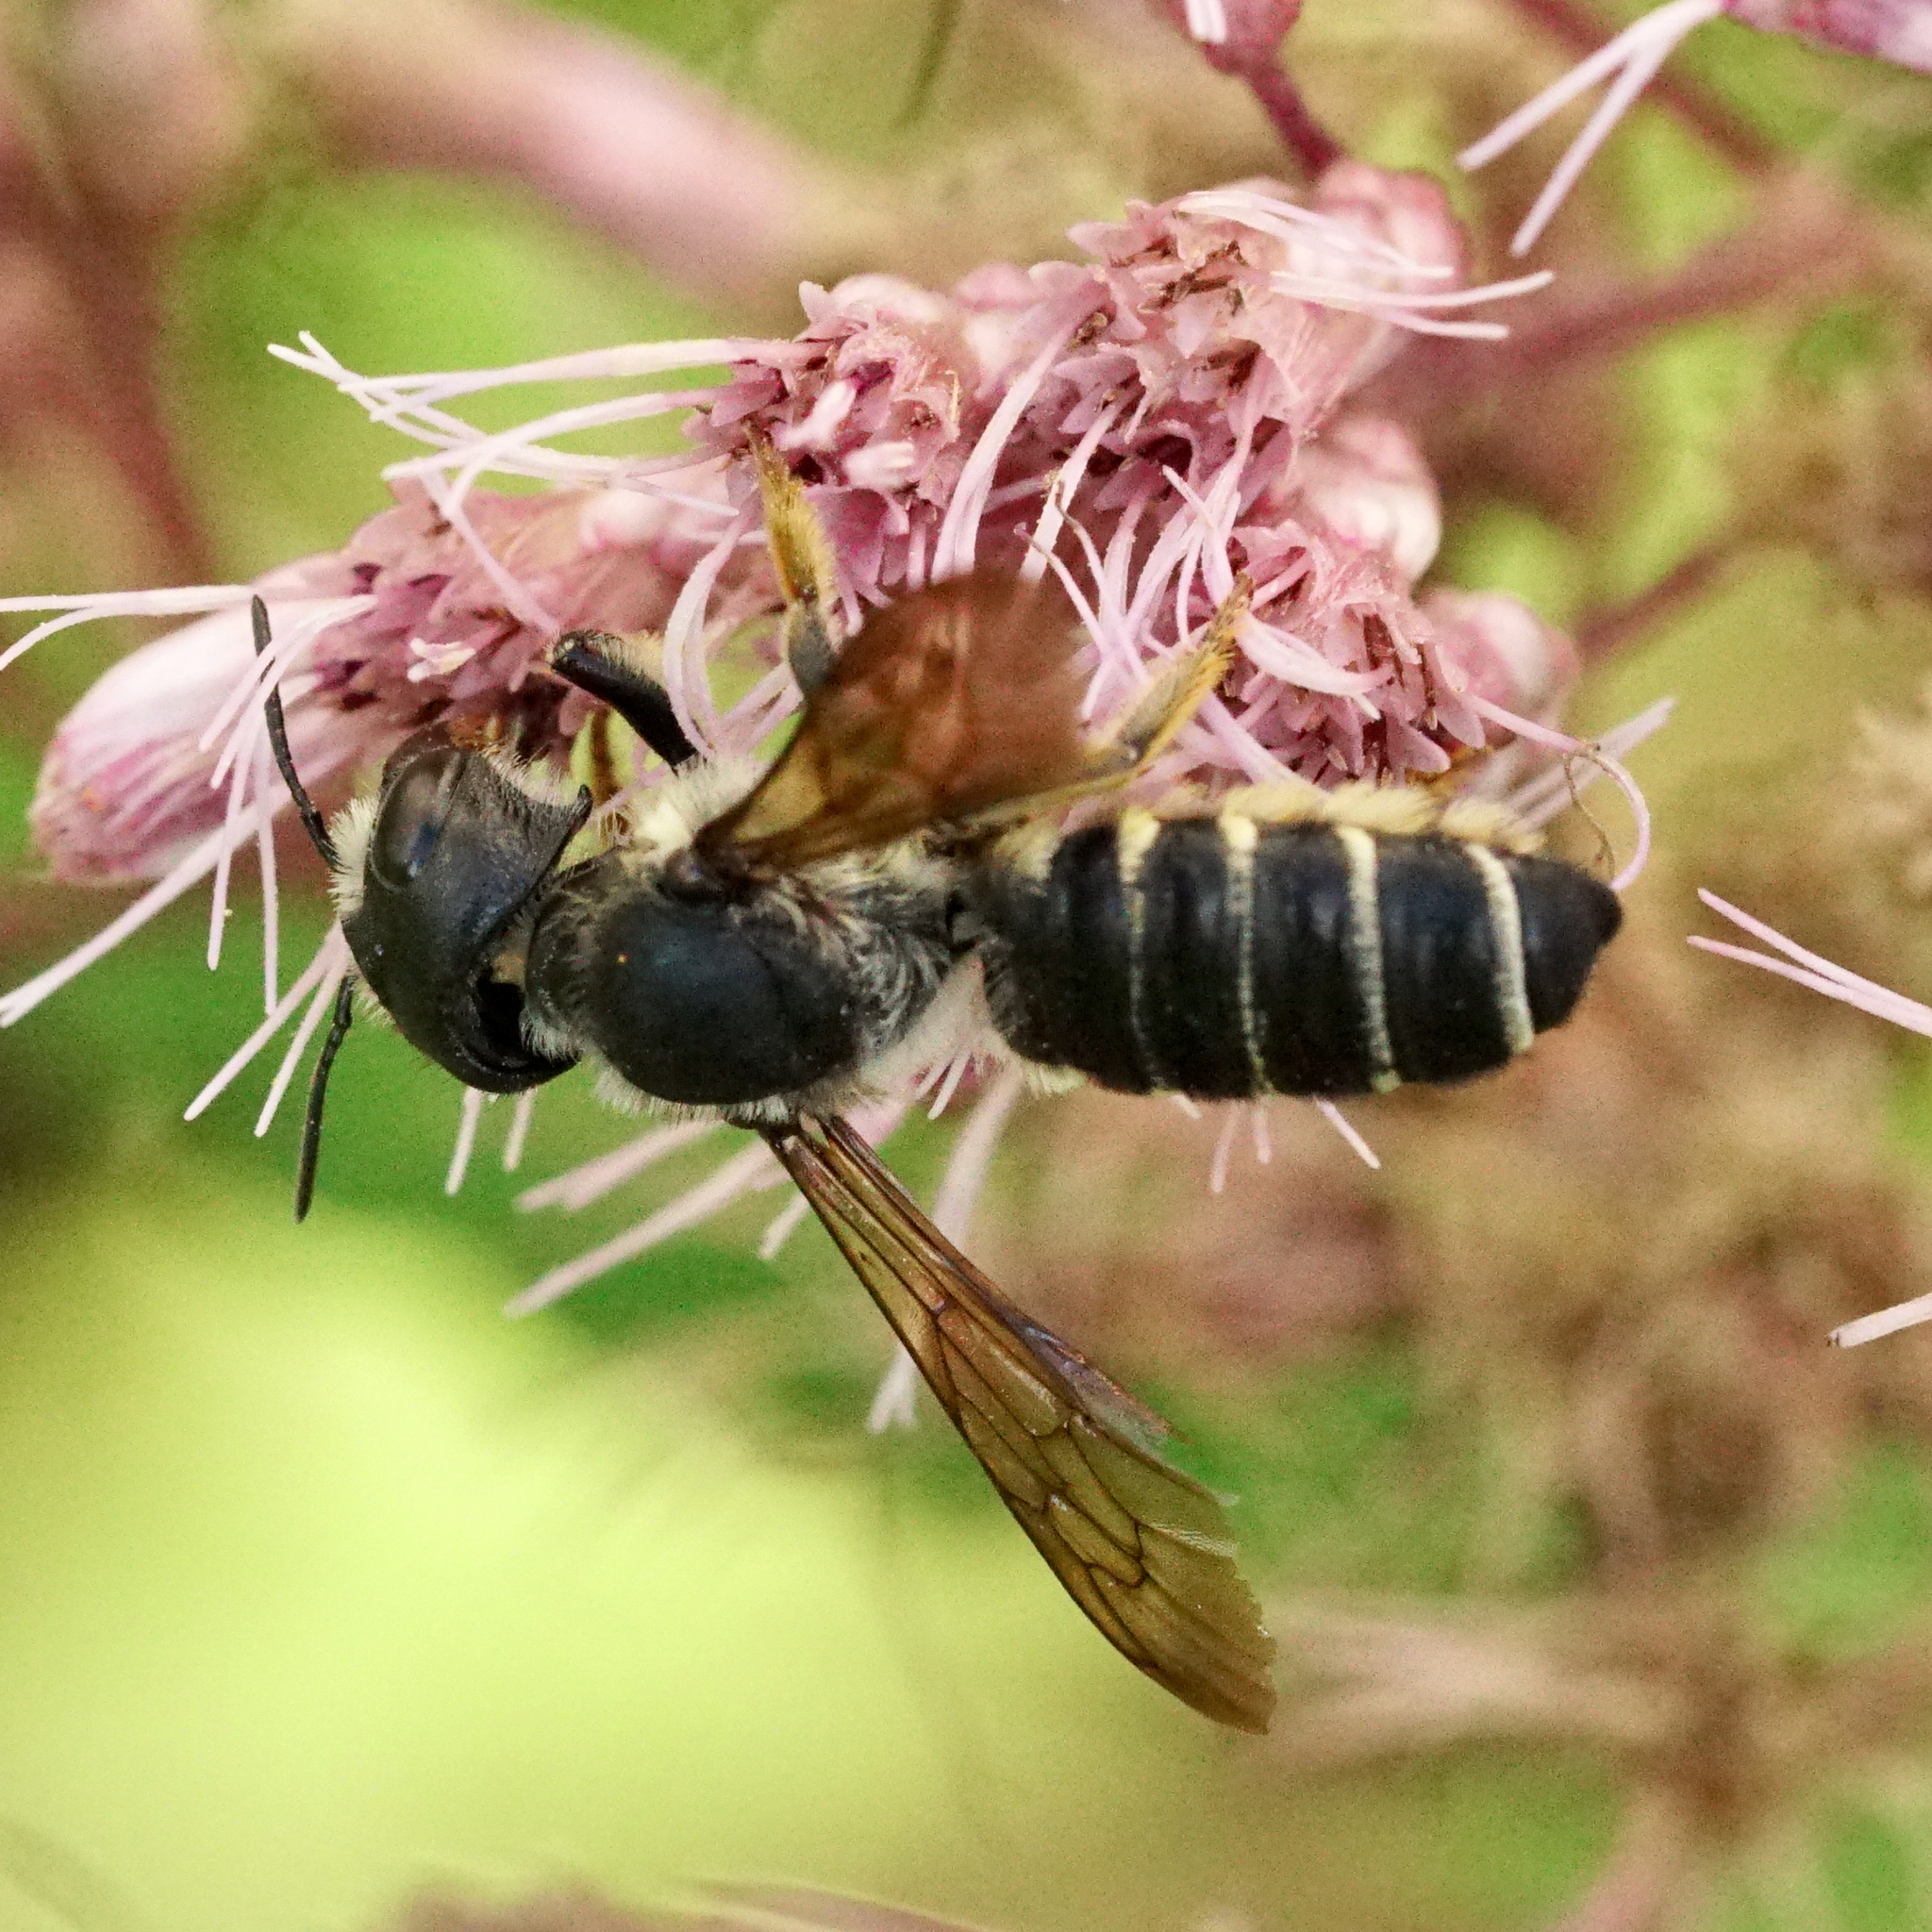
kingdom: Animalia
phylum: Arthropoda
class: Insecta
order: Hymenoptera
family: Megachilidae
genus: Megachile
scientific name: Megachile pugnata
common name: Pugnacious leafcutter bee
